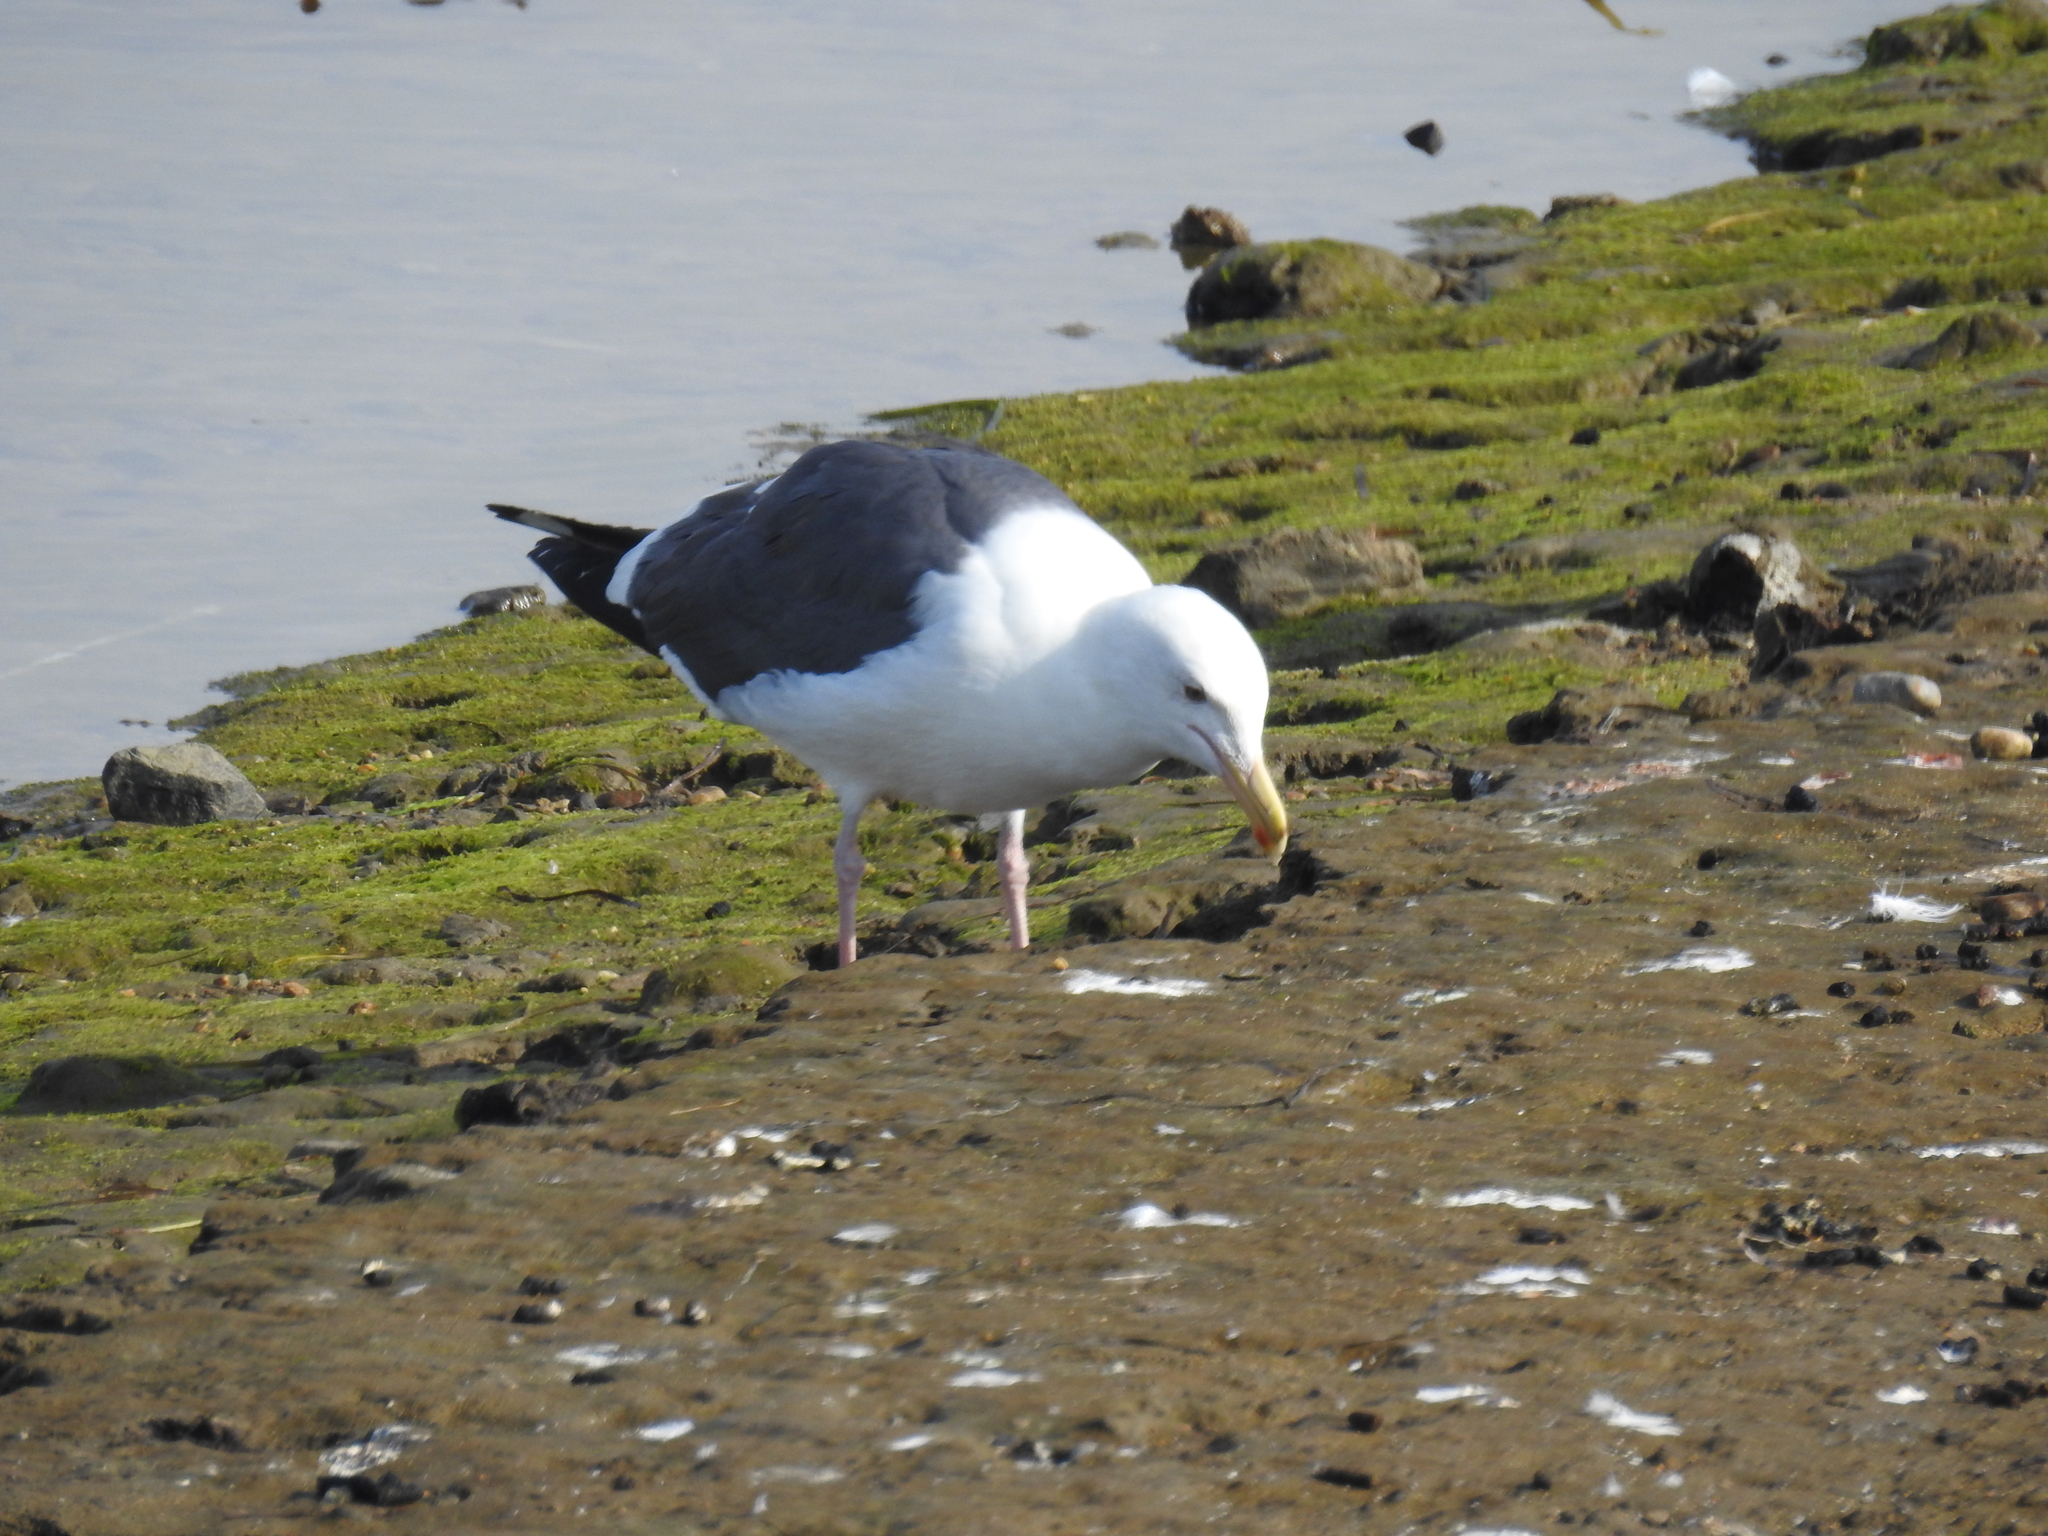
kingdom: Animalia
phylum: Chordata
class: Aves
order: Charadriiformes
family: Laridae
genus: Larus
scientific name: Larus occidentalis
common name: Western gull
